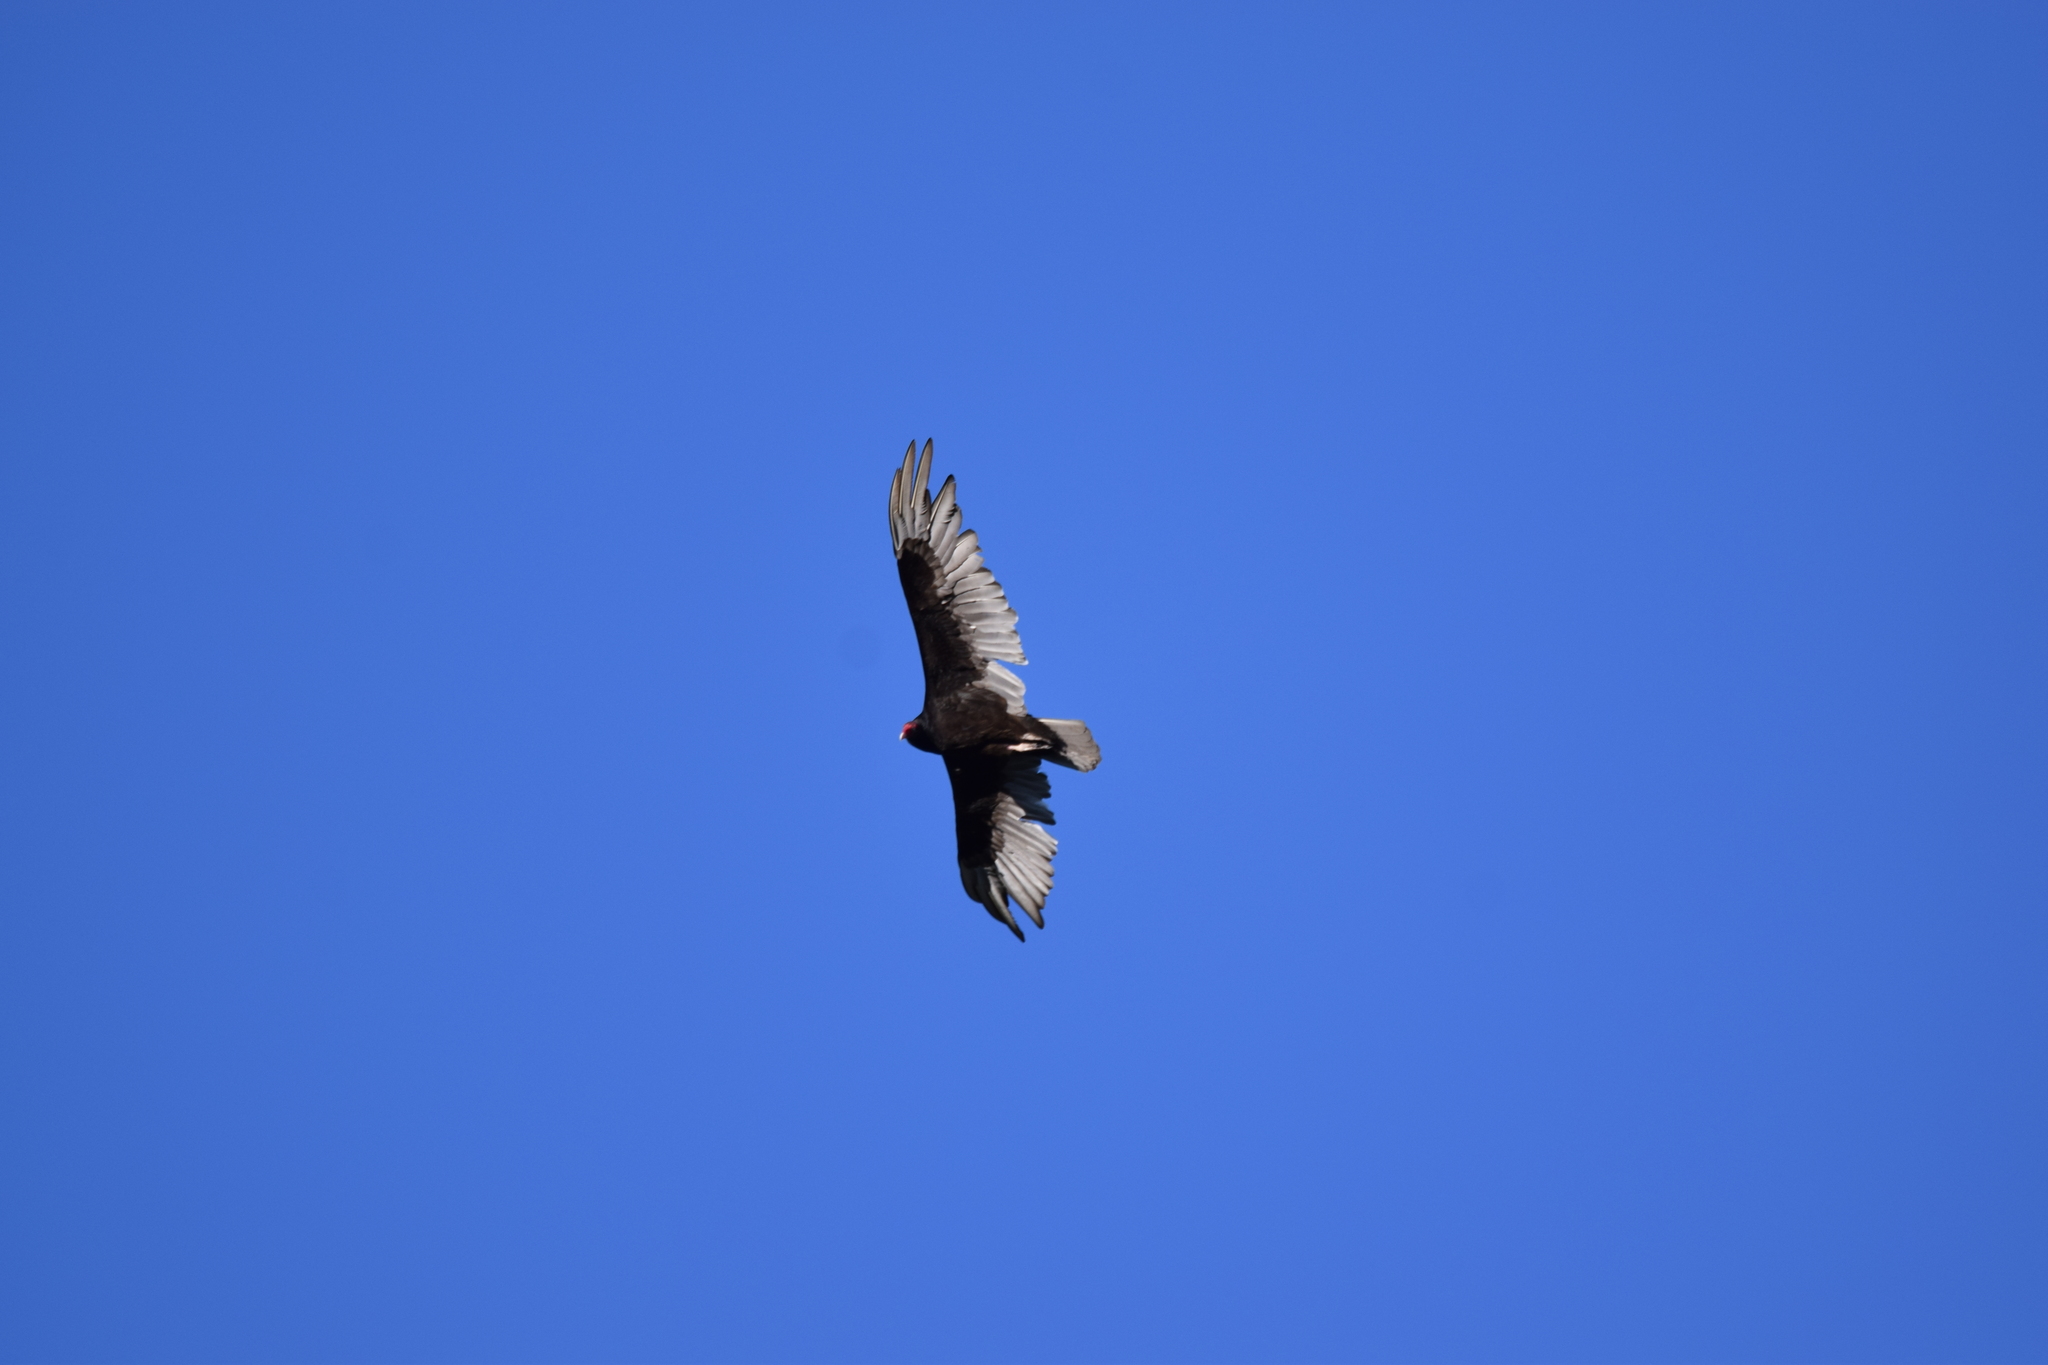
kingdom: Animalia
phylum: Chordata
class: Aves
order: Accipitriformes
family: Cathartidae
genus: Cathartes
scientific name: Cathartes aura
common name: Turkey vulture
